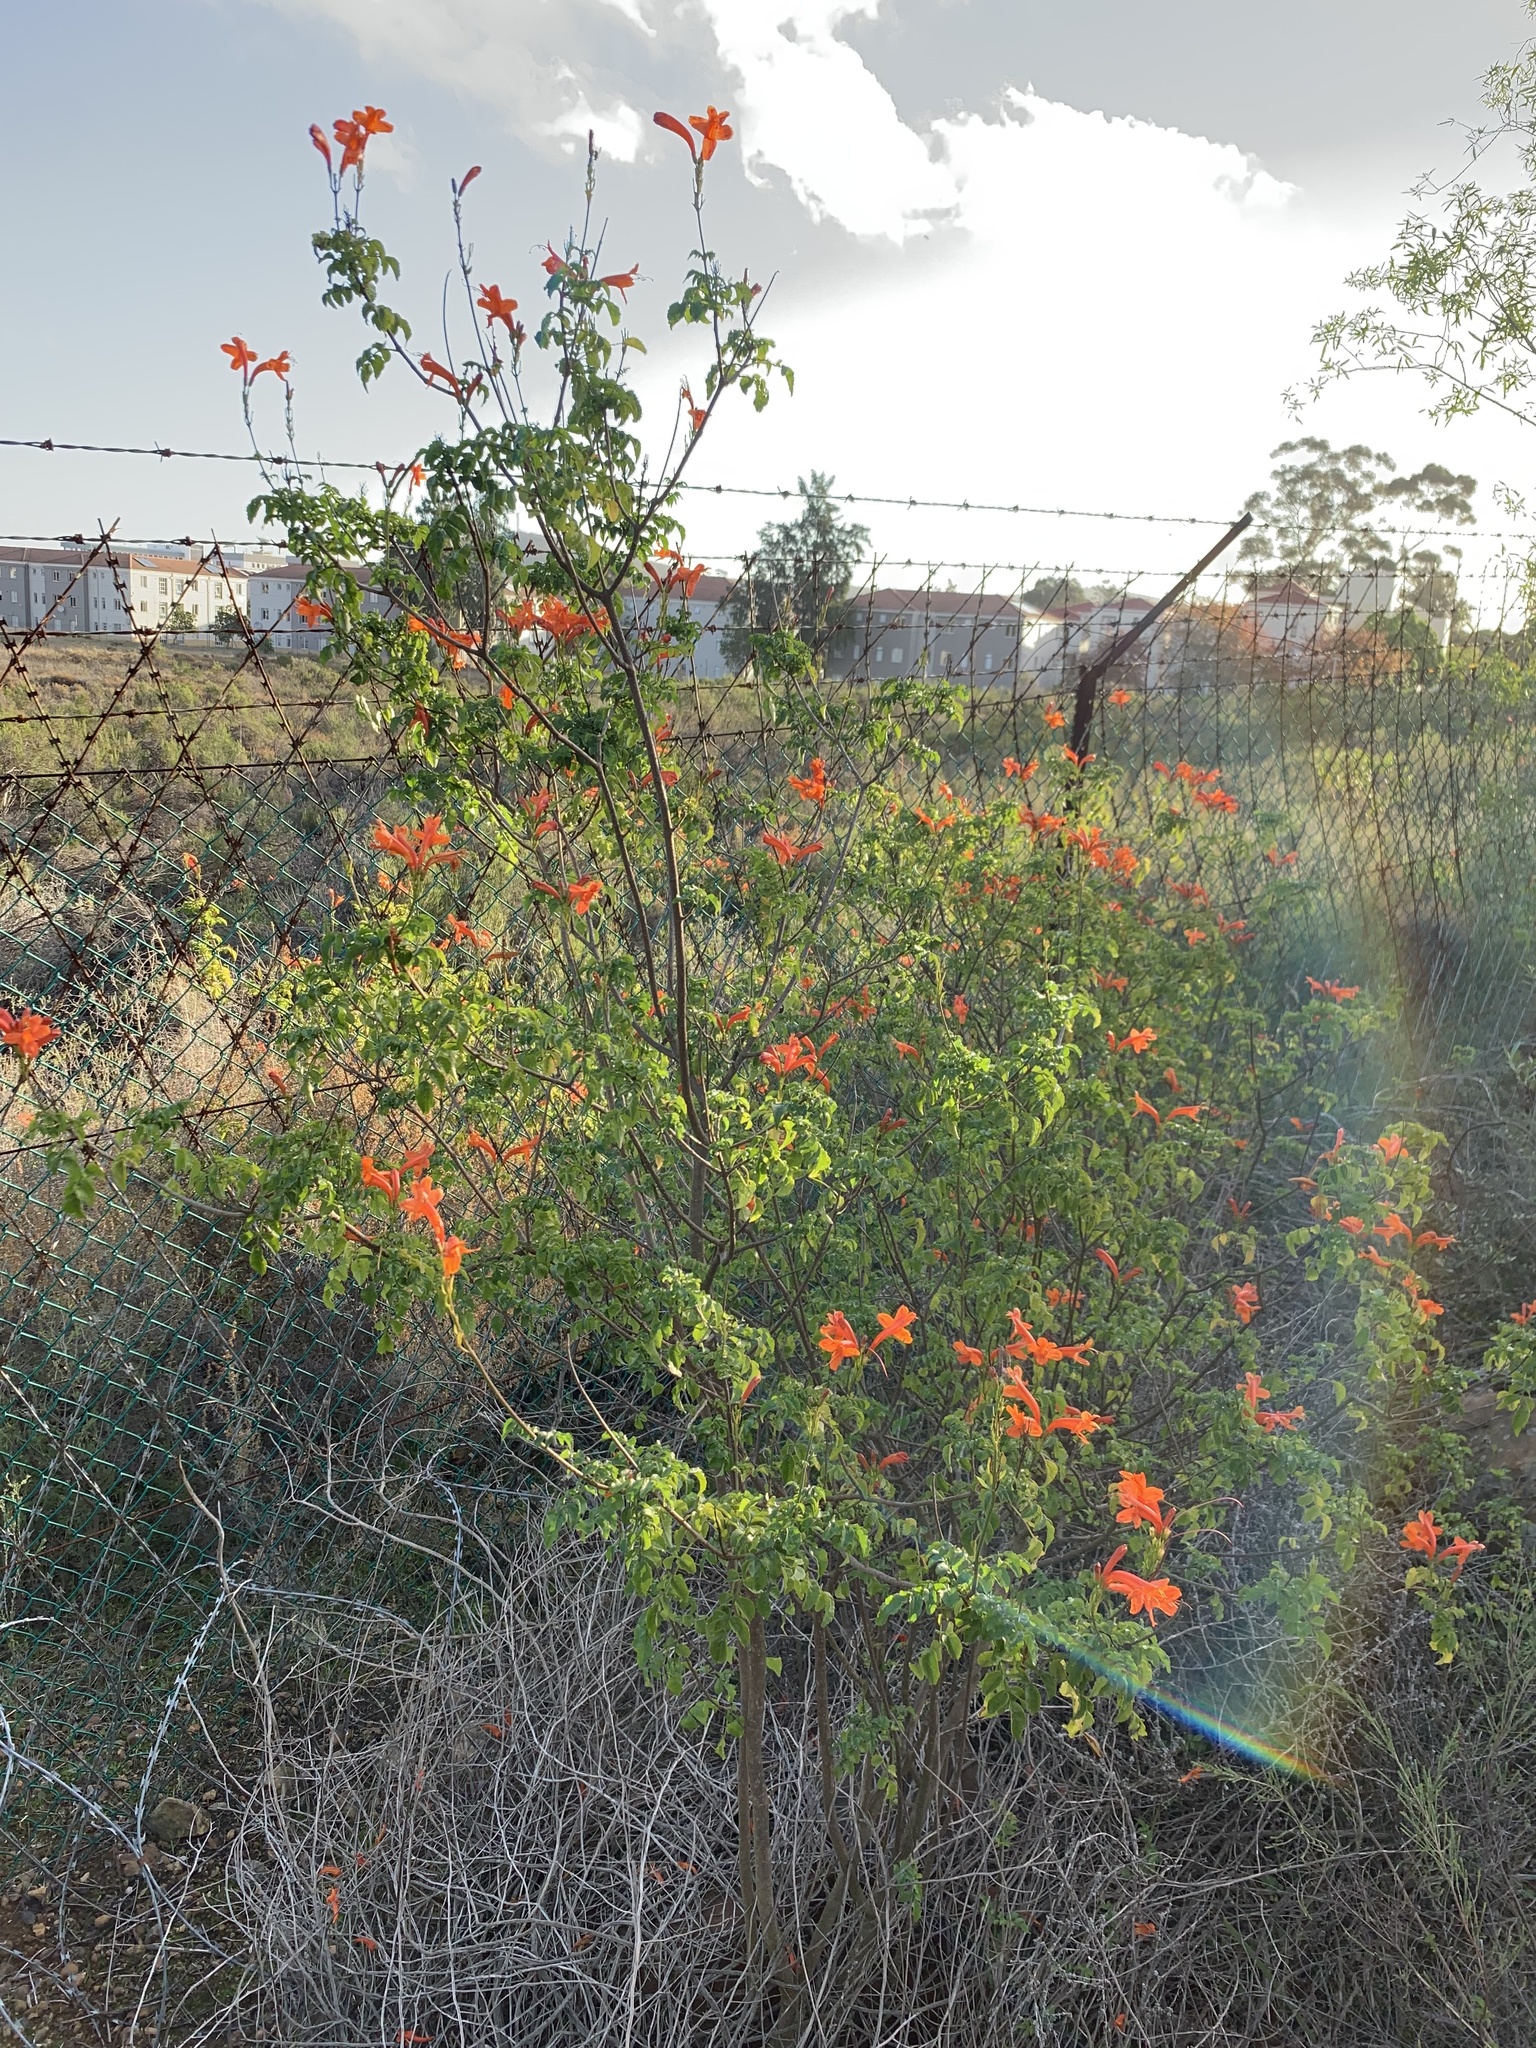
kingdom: Plantae
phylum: Tracheophyta
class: Magnoliopsida
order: Lamiales
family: Bignoniaceae
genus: Tecomaria
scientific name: Tecomaria capensis
